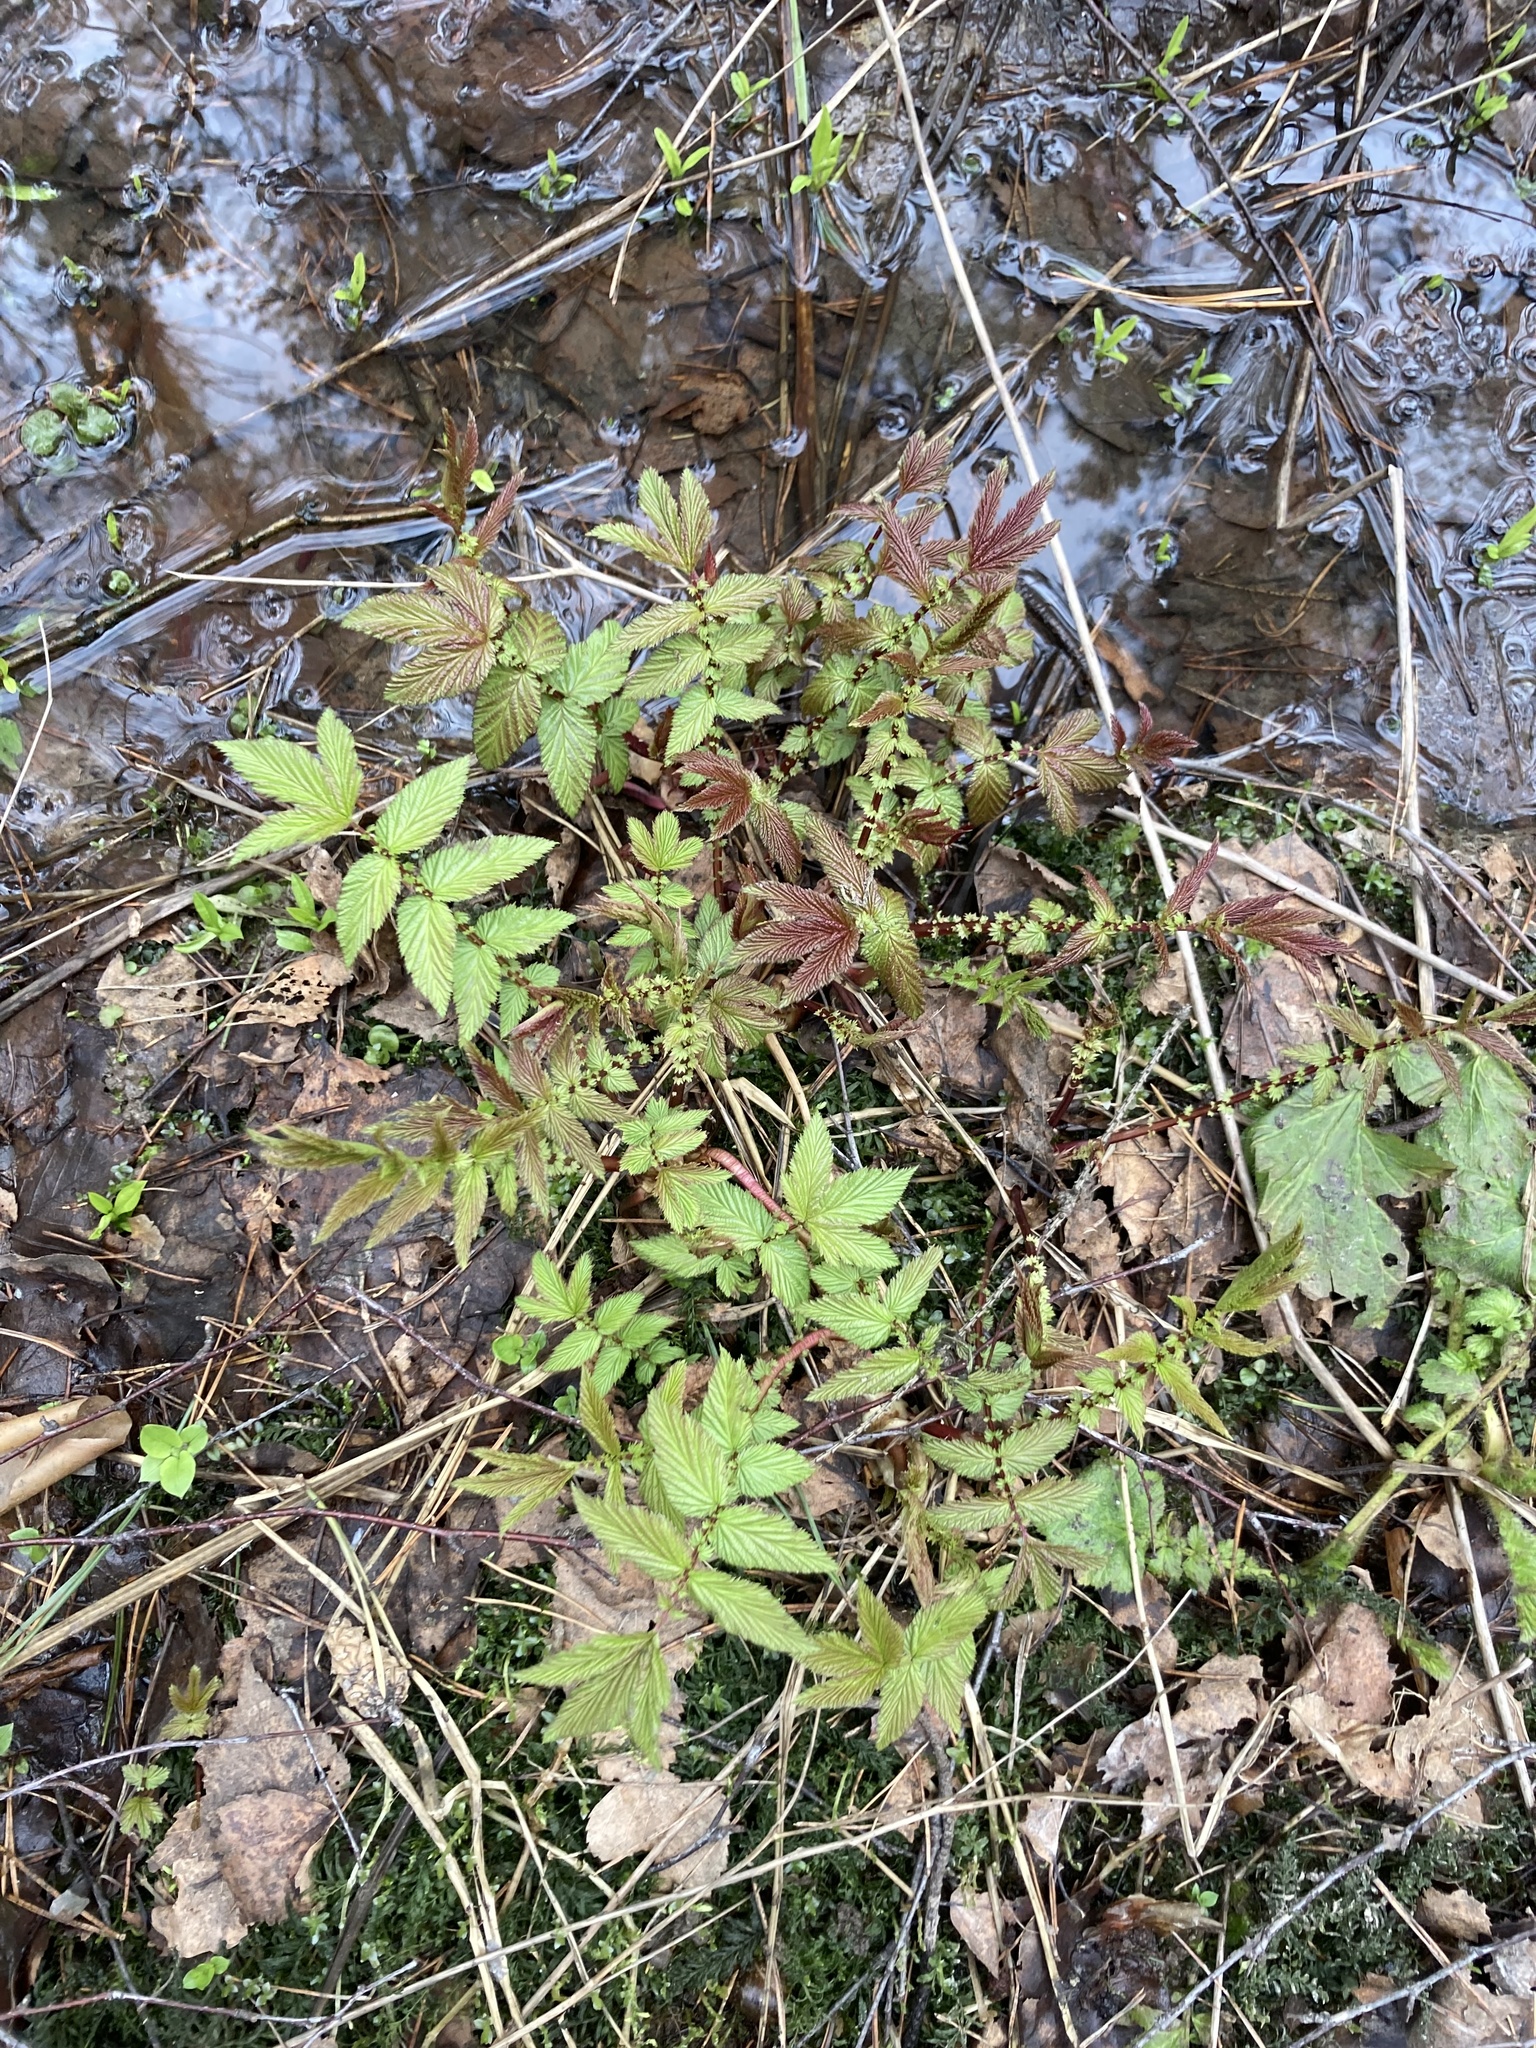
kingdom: Plantae
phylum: Tracheophyta
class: Magnoliopsida
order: Rosales
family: Rosaceae
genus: Filipendula
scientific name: Filipendula ulmaria
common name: Meadowsweet
